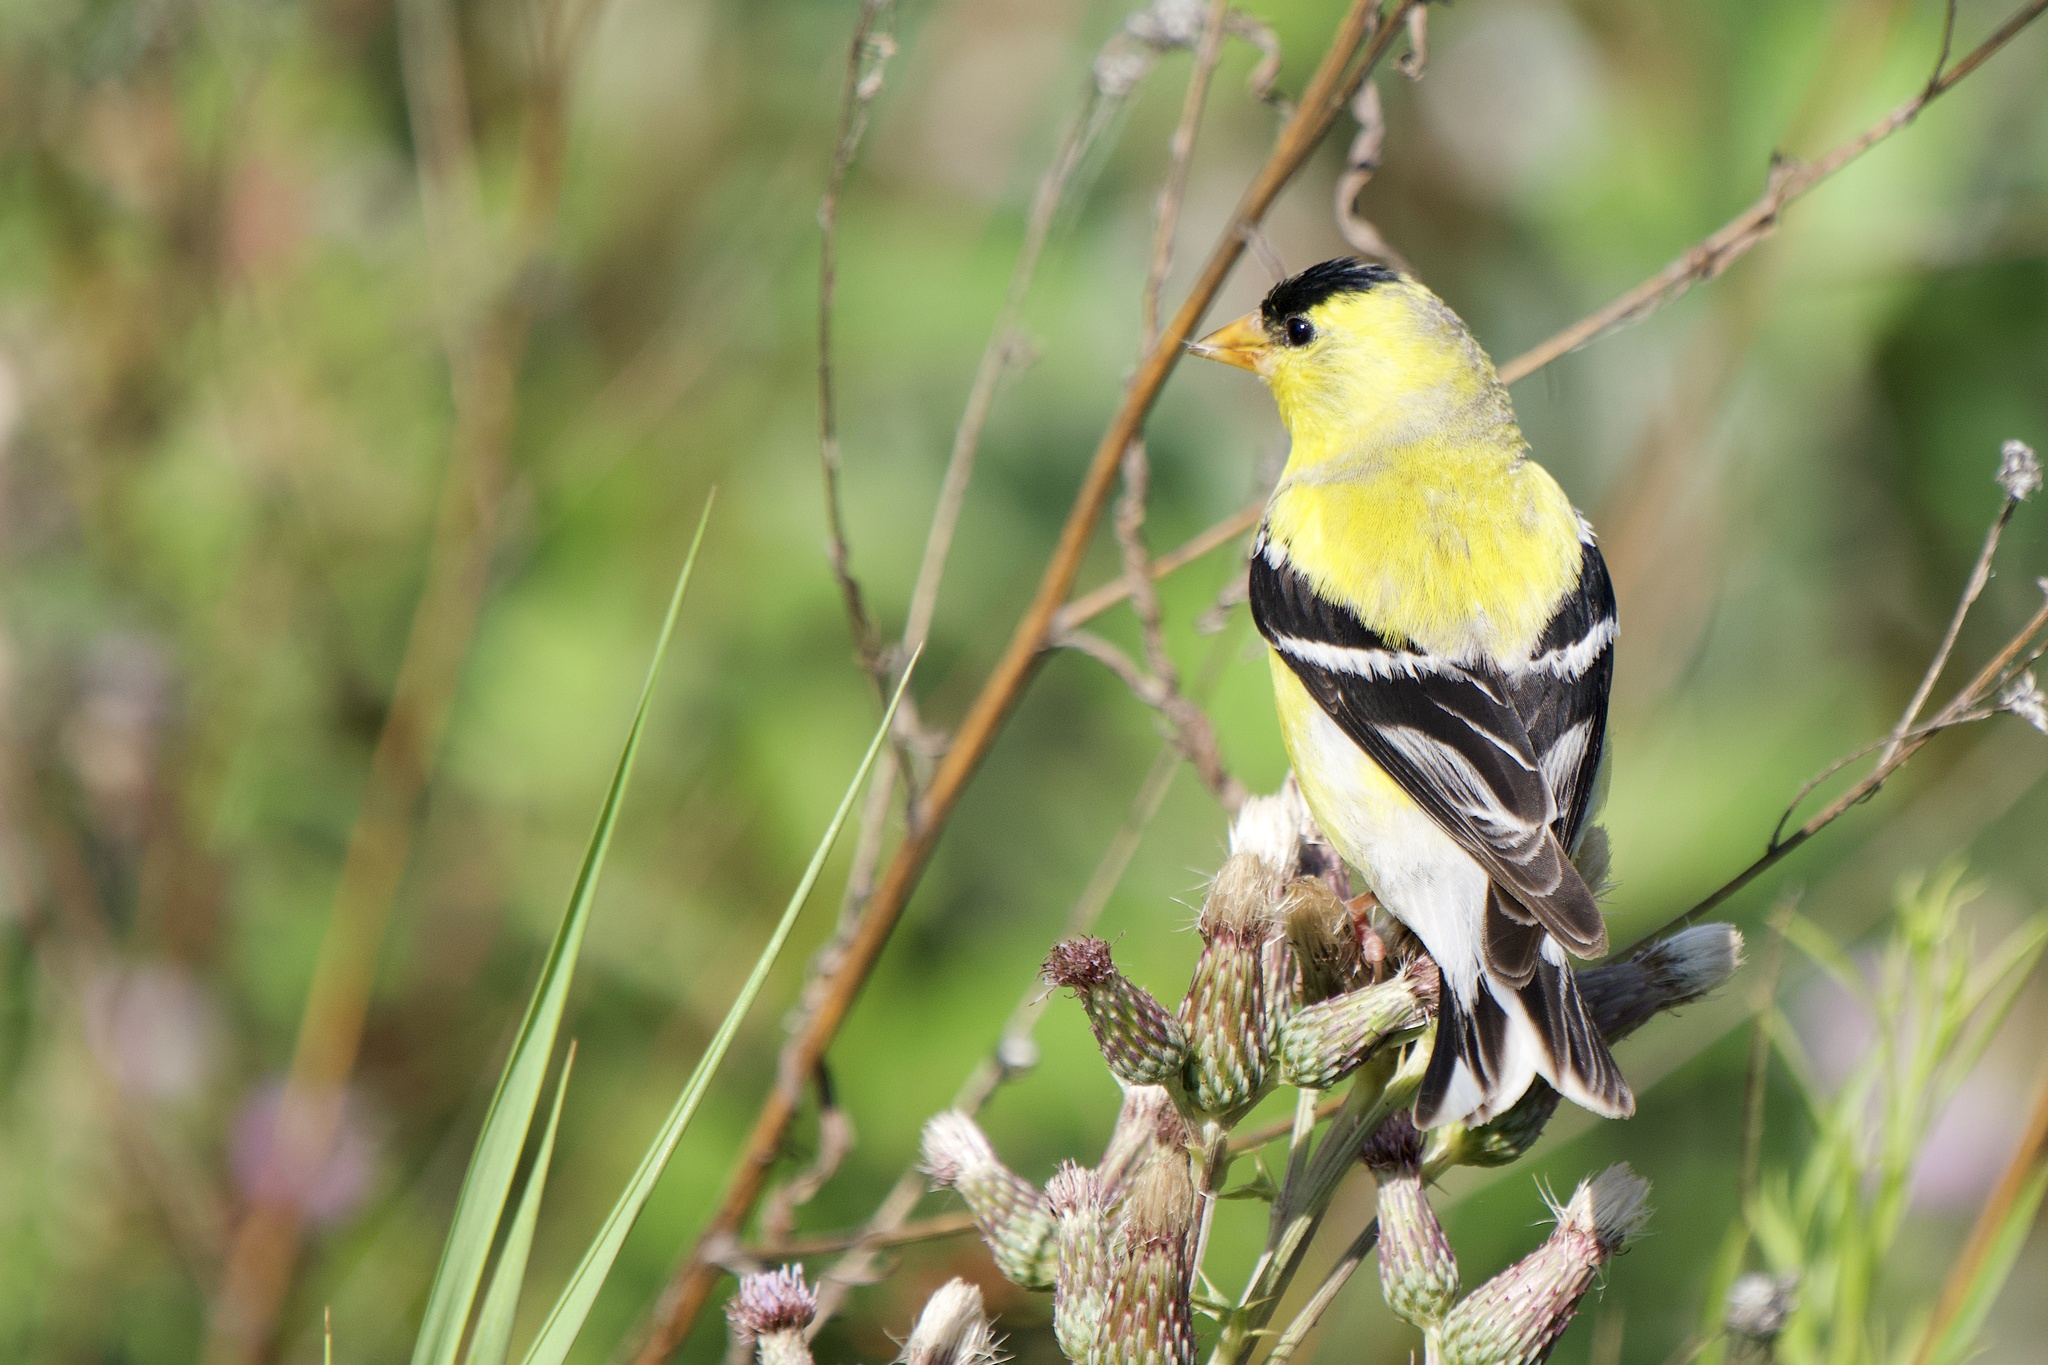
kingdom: Animalia
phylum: Chordata
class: Aves
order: Passeriformes
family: Fringillidae
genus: Spinus
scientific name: Spinus tristis
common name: American goldfinch
